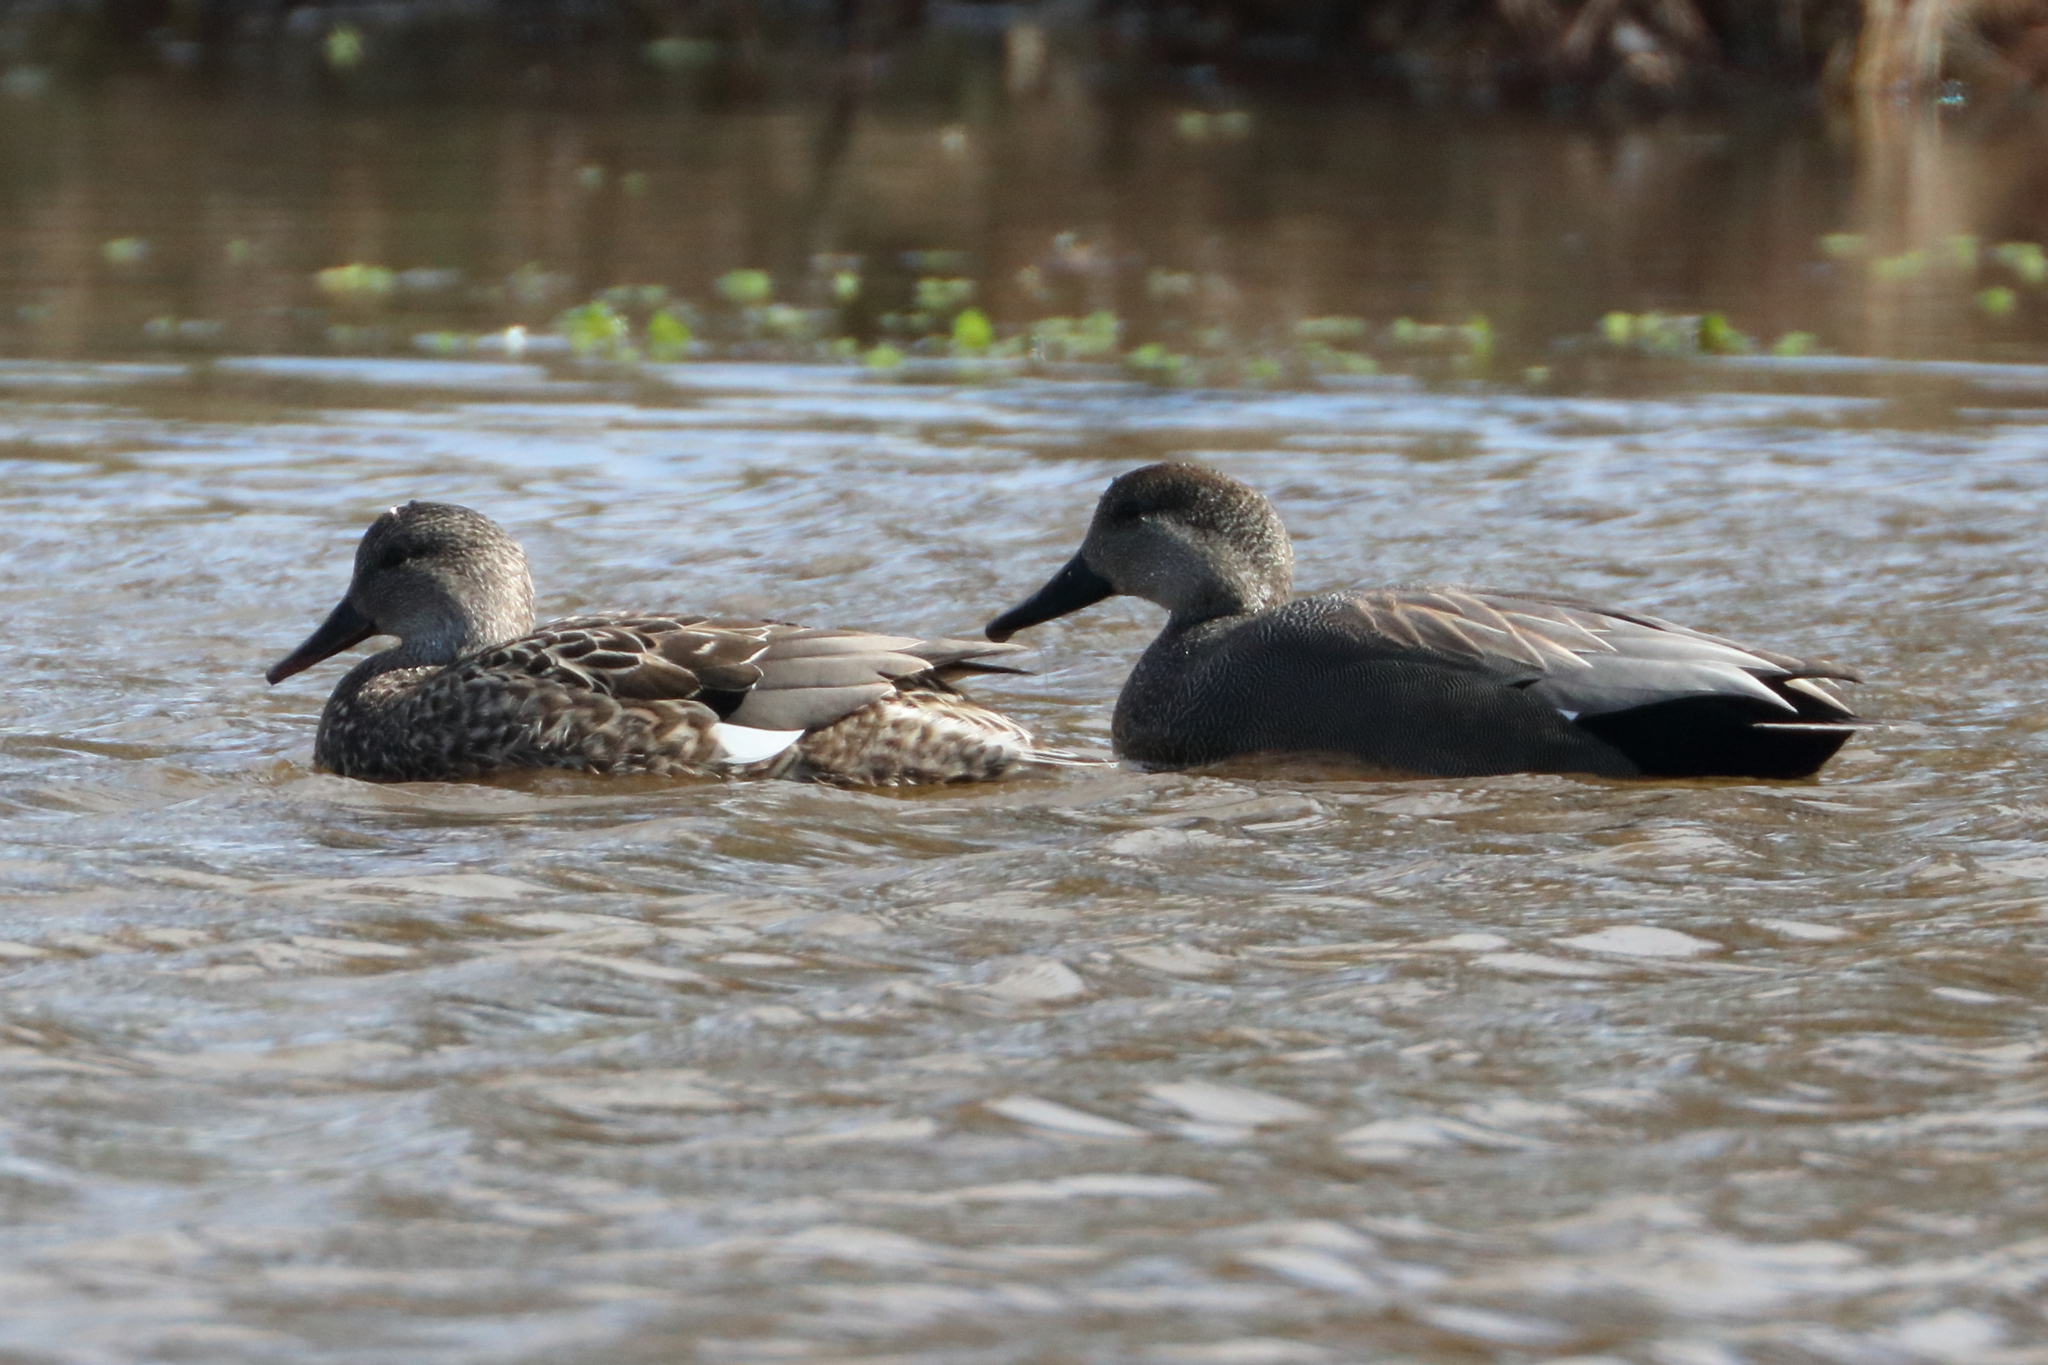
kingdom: Animalia
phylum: Chordata
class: Aves
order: Anseriformes
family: Anatidae
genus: Mareca
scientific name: Mareca strepera
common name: Gadwall
